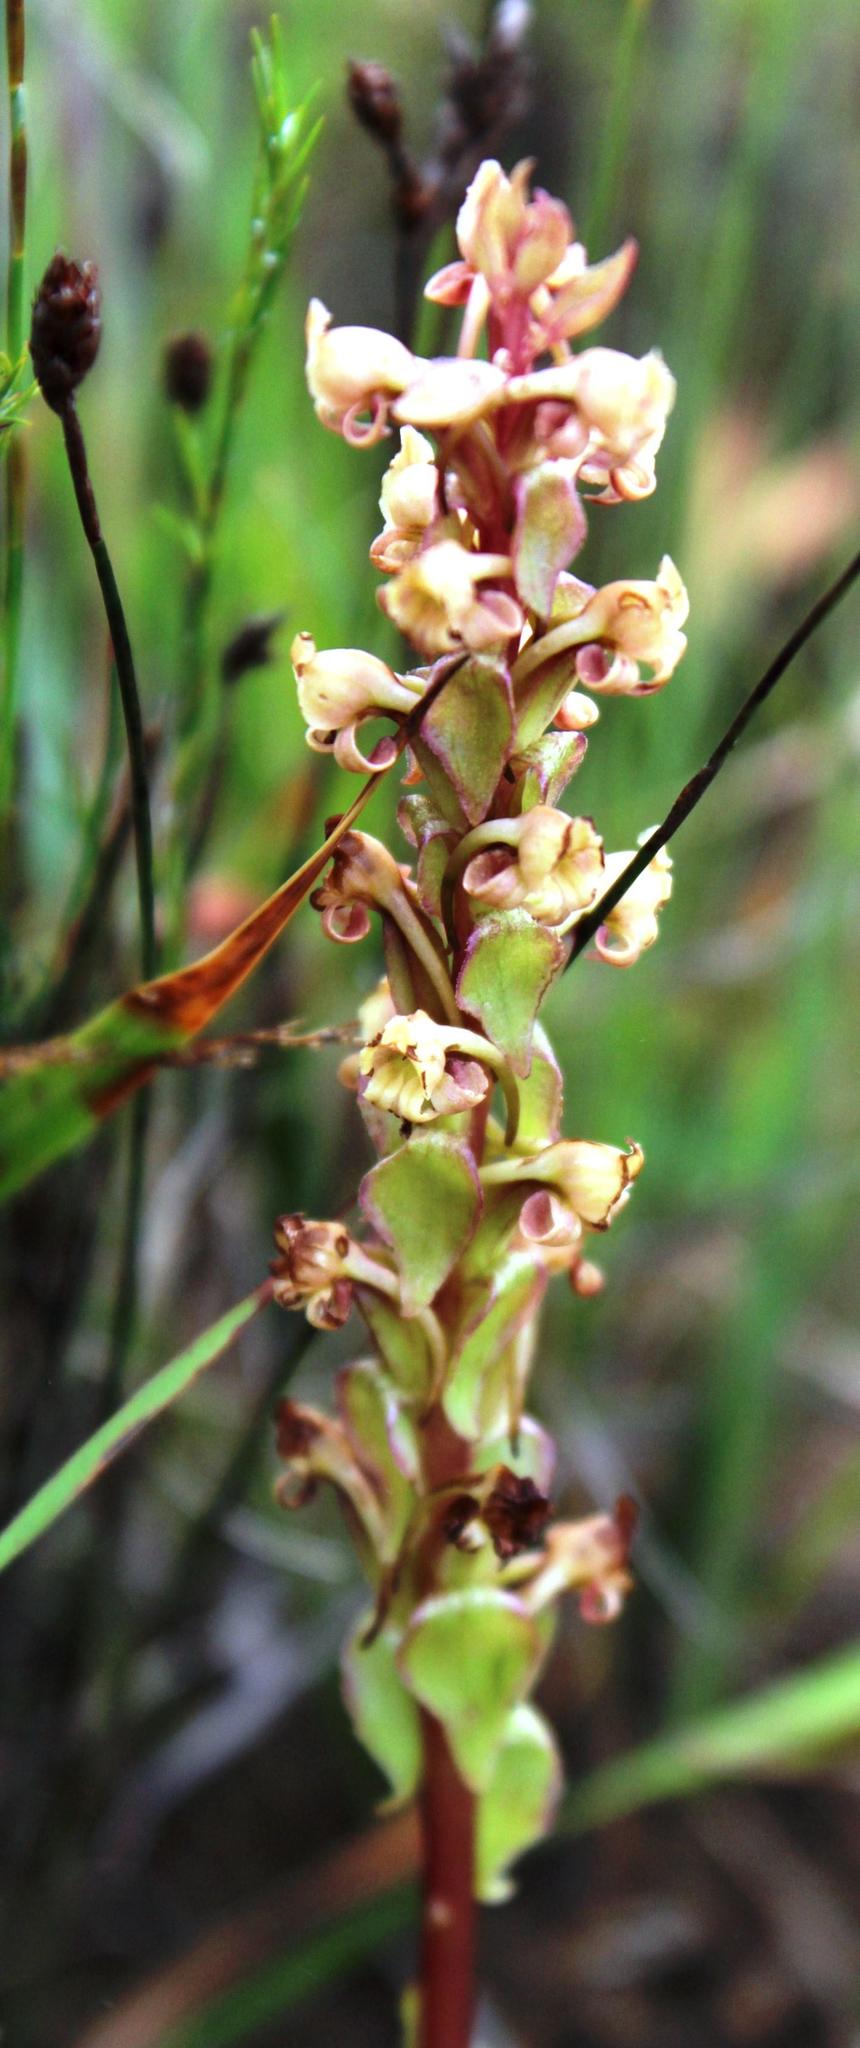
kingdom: Plantae
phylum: Tracheophyta
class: Liliopsida
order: Asparagales
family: Orchidaceae
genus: Satyrium
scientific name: Satyrium humile
